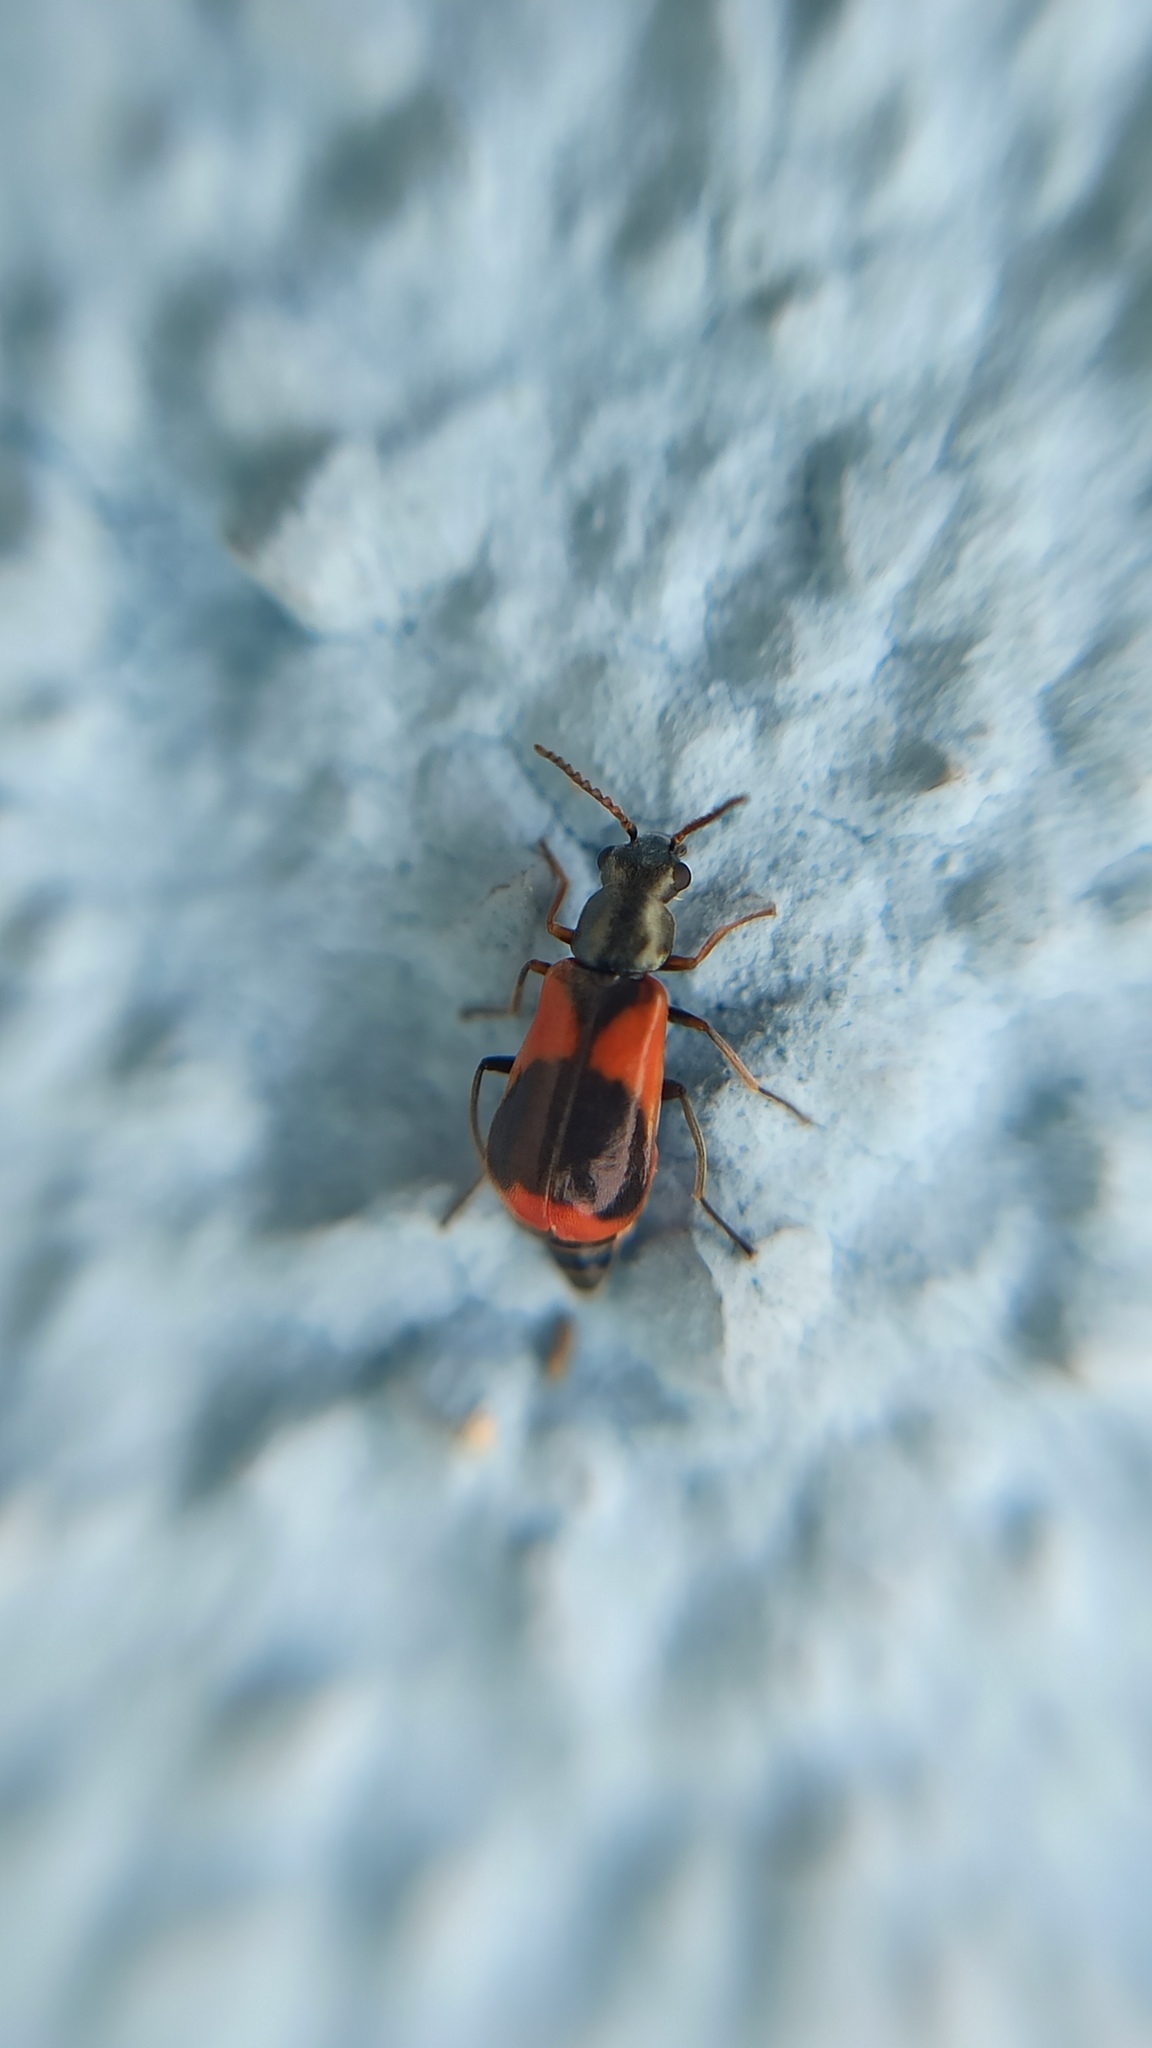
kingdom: Animalia
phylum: Arthropoda
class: Insecta
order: Coleoptera
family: Melyridae
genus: Anthocomus
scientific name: Anthocomus equestris
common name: Black-banded soft-winged flower beetle
